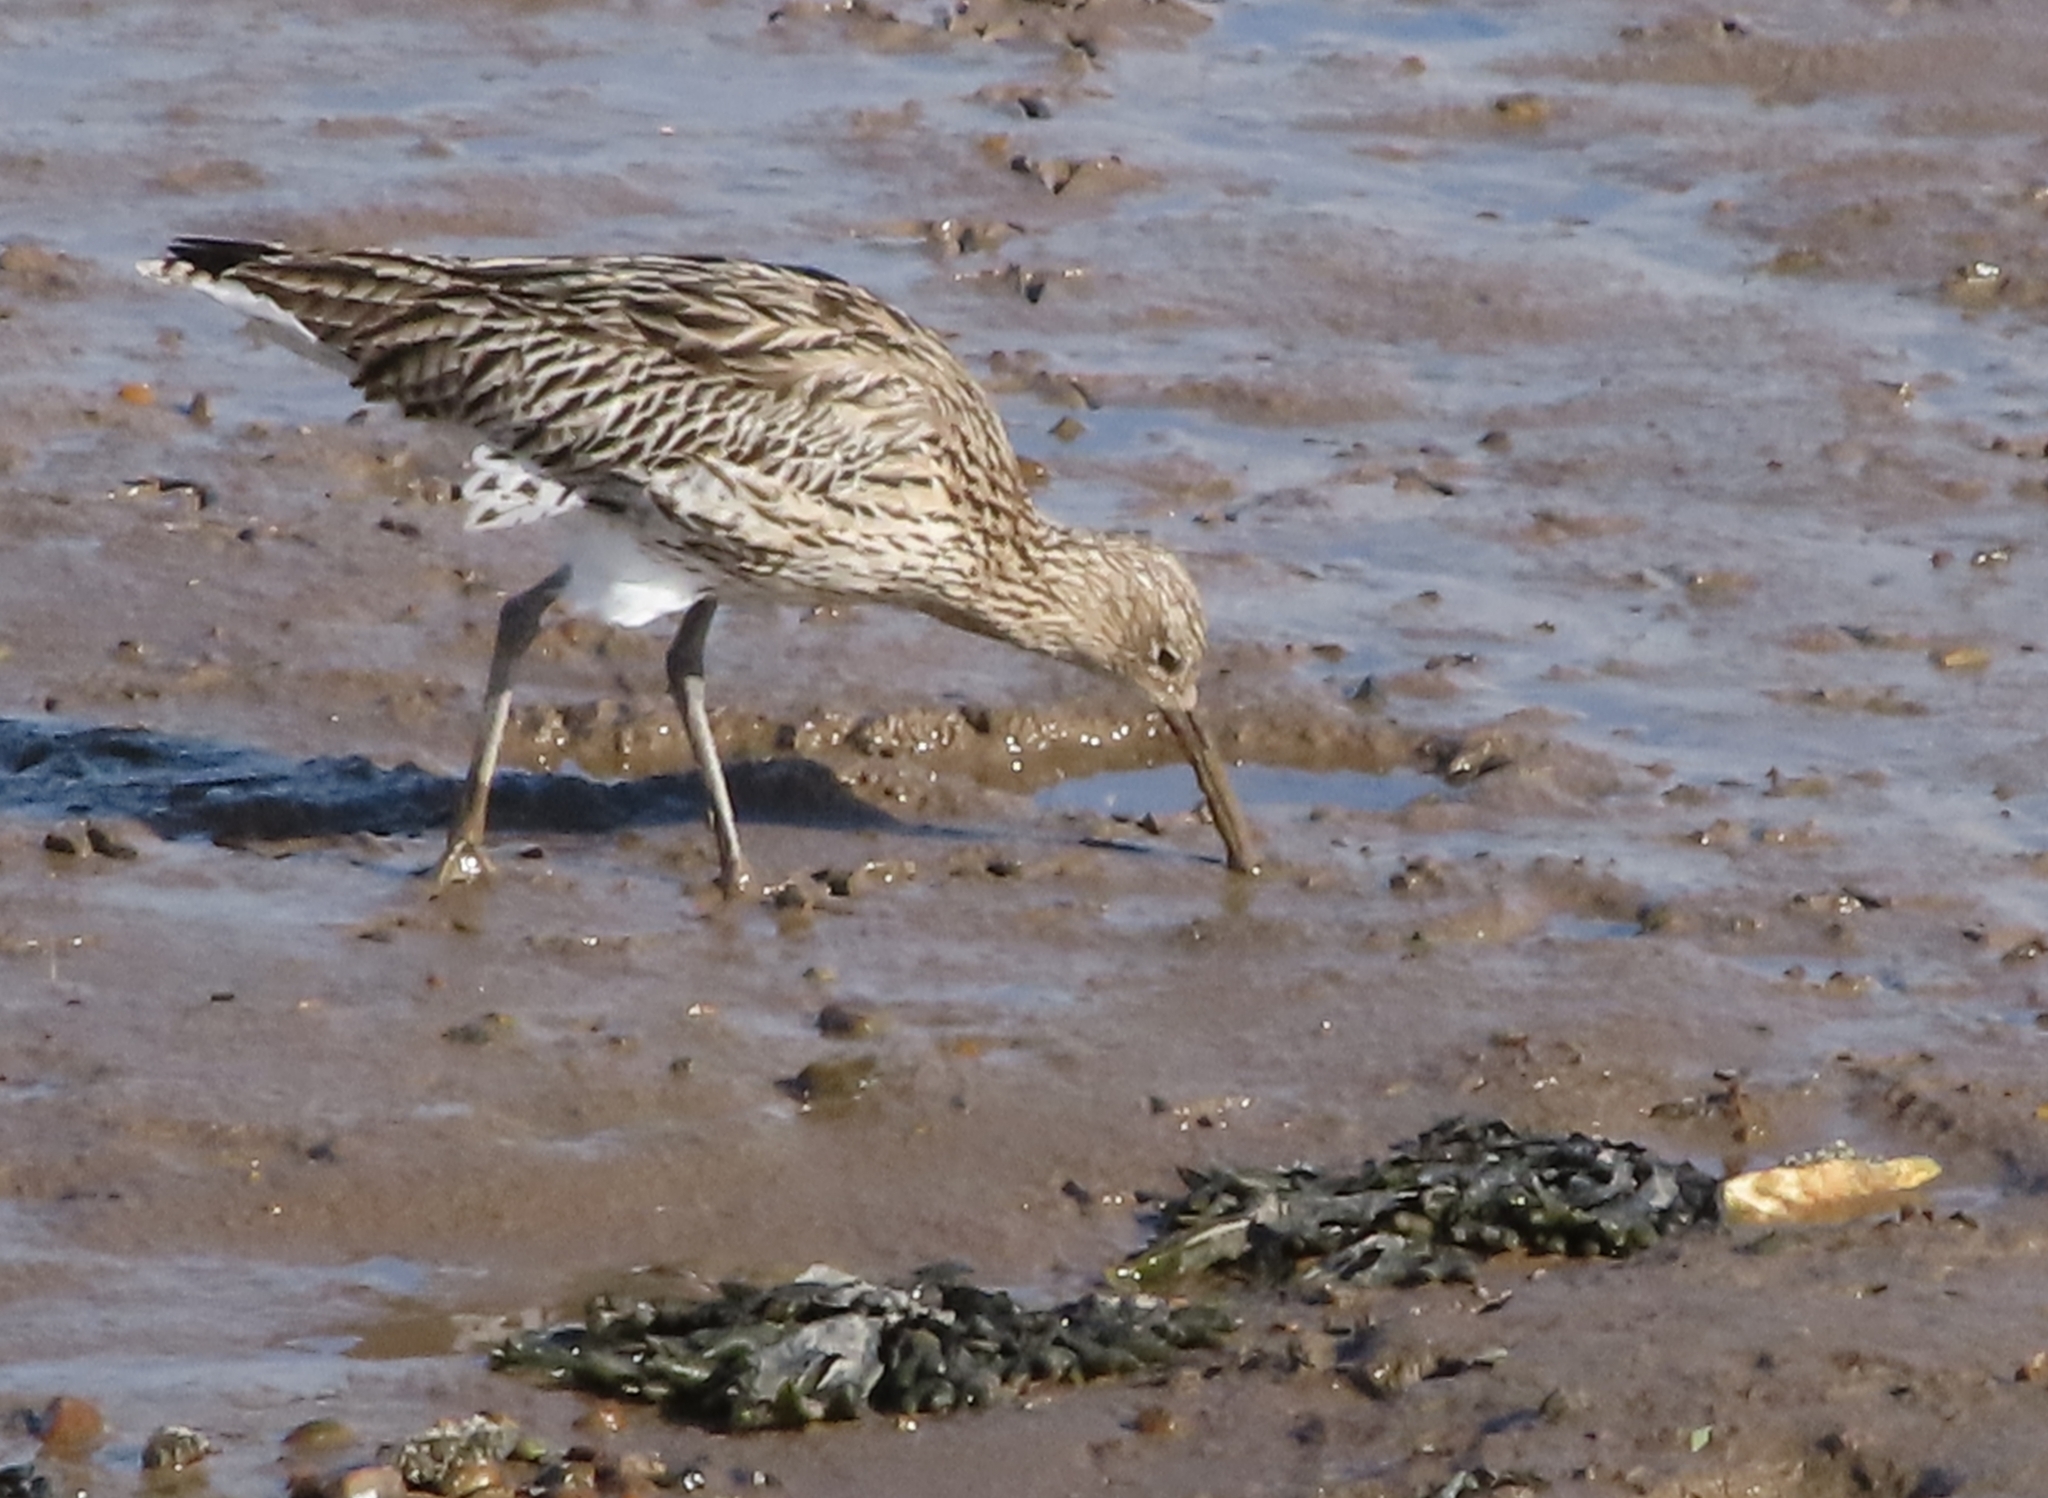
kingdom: Animalia
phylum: Chordata
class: Aves
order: Charadriiformes
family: Scolopacidae
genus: Numenius
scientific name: Numenius arquata
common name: Eurasian curlew
